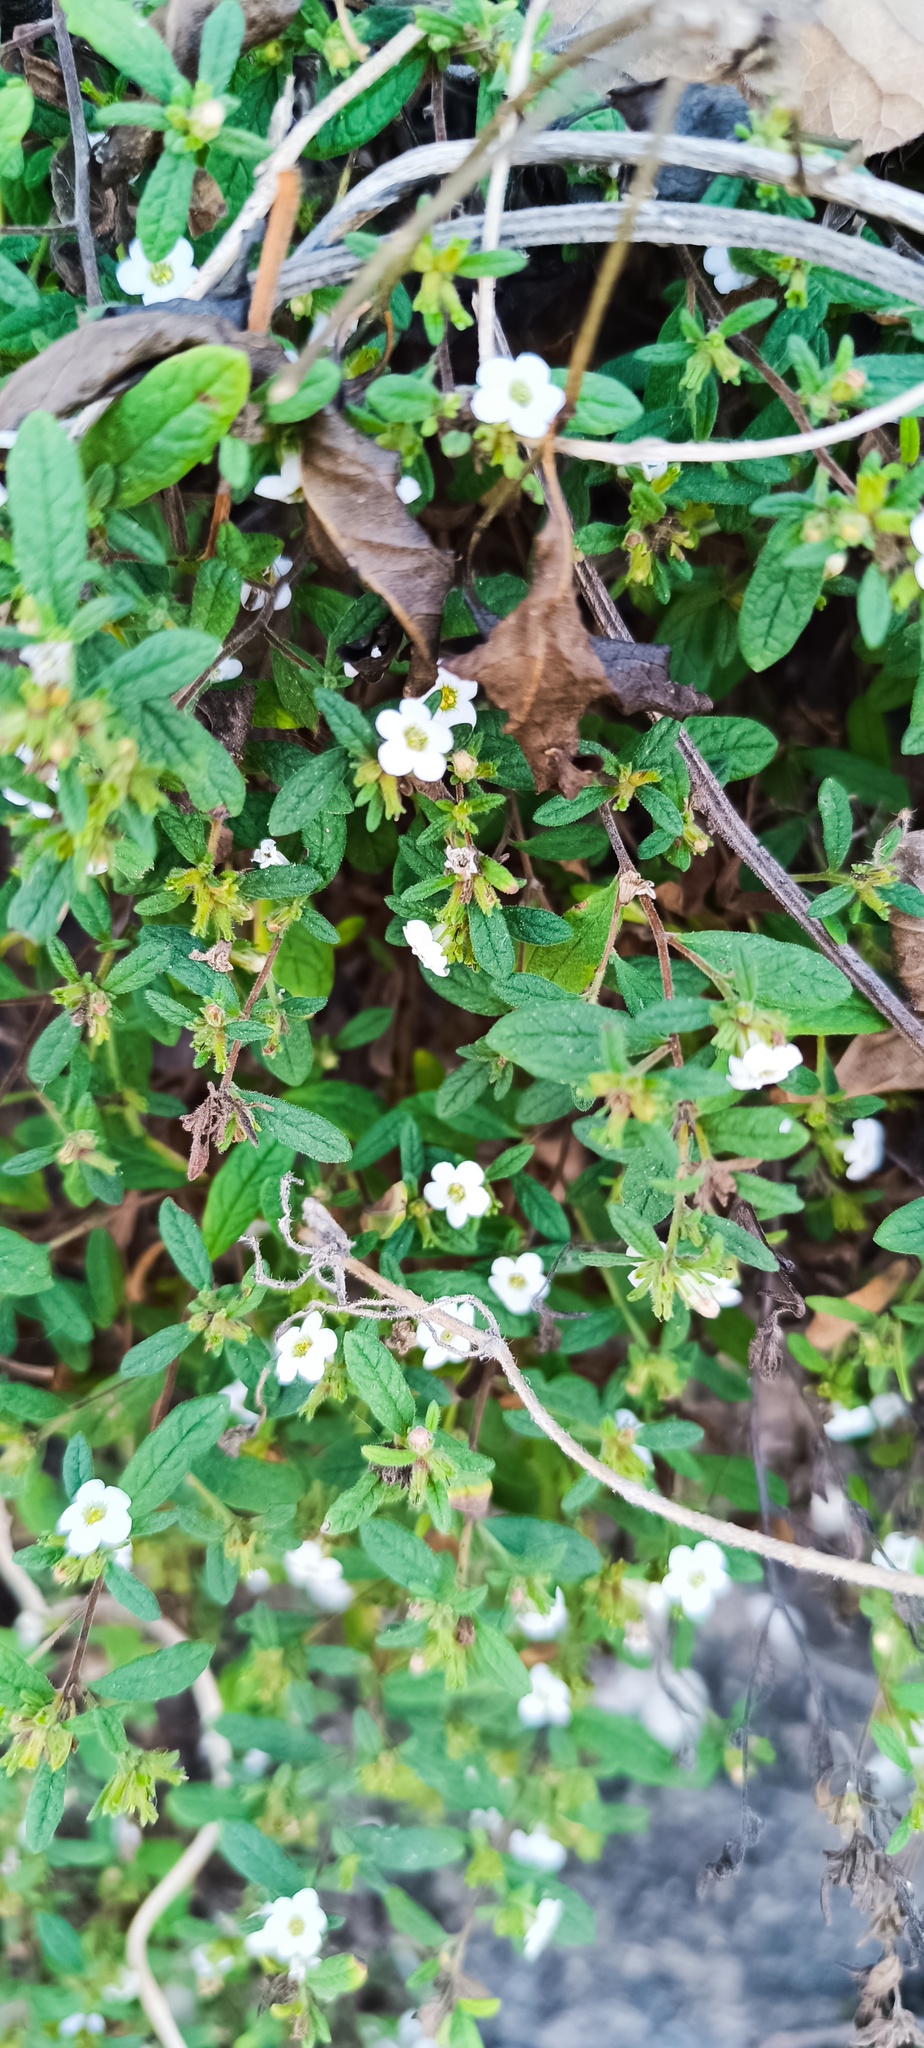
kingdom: Plantae
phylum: Tracheophyta
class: Magnoliopsida
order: Boraginales
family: Namaceae
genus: Nama
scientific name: Nama origanifolia
